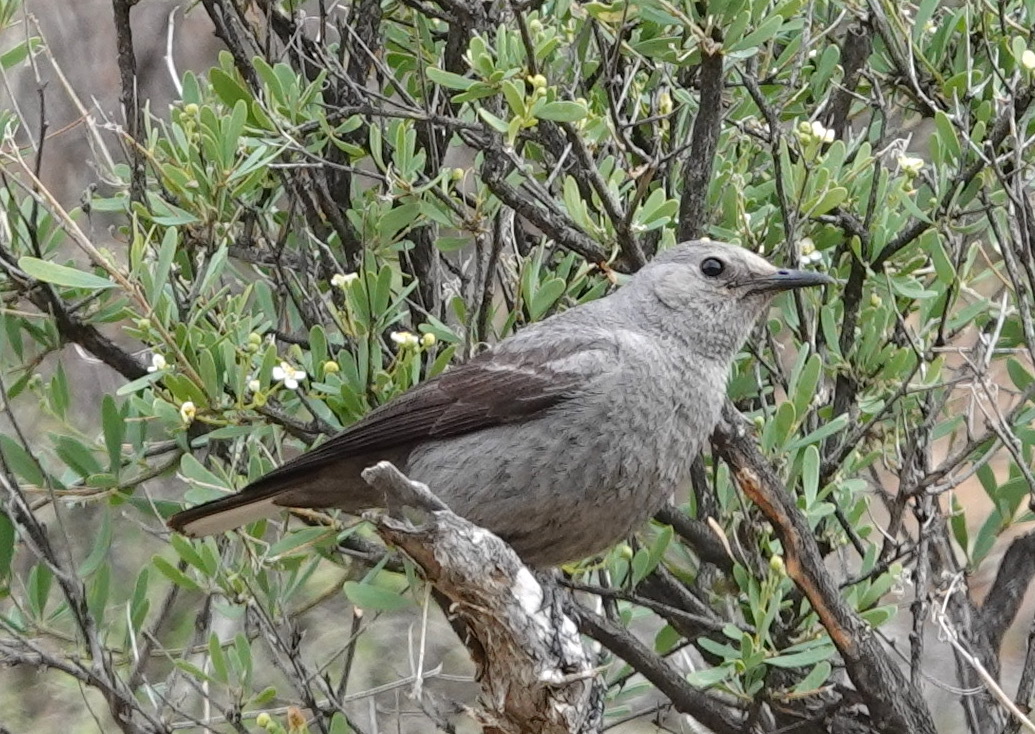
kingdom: Animalia
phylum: Chordata
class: Aves
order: Passeriformes
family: Muscicapidae
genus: Oenanthe
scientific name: Oenanthe monticola
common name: Mountain wheatear
